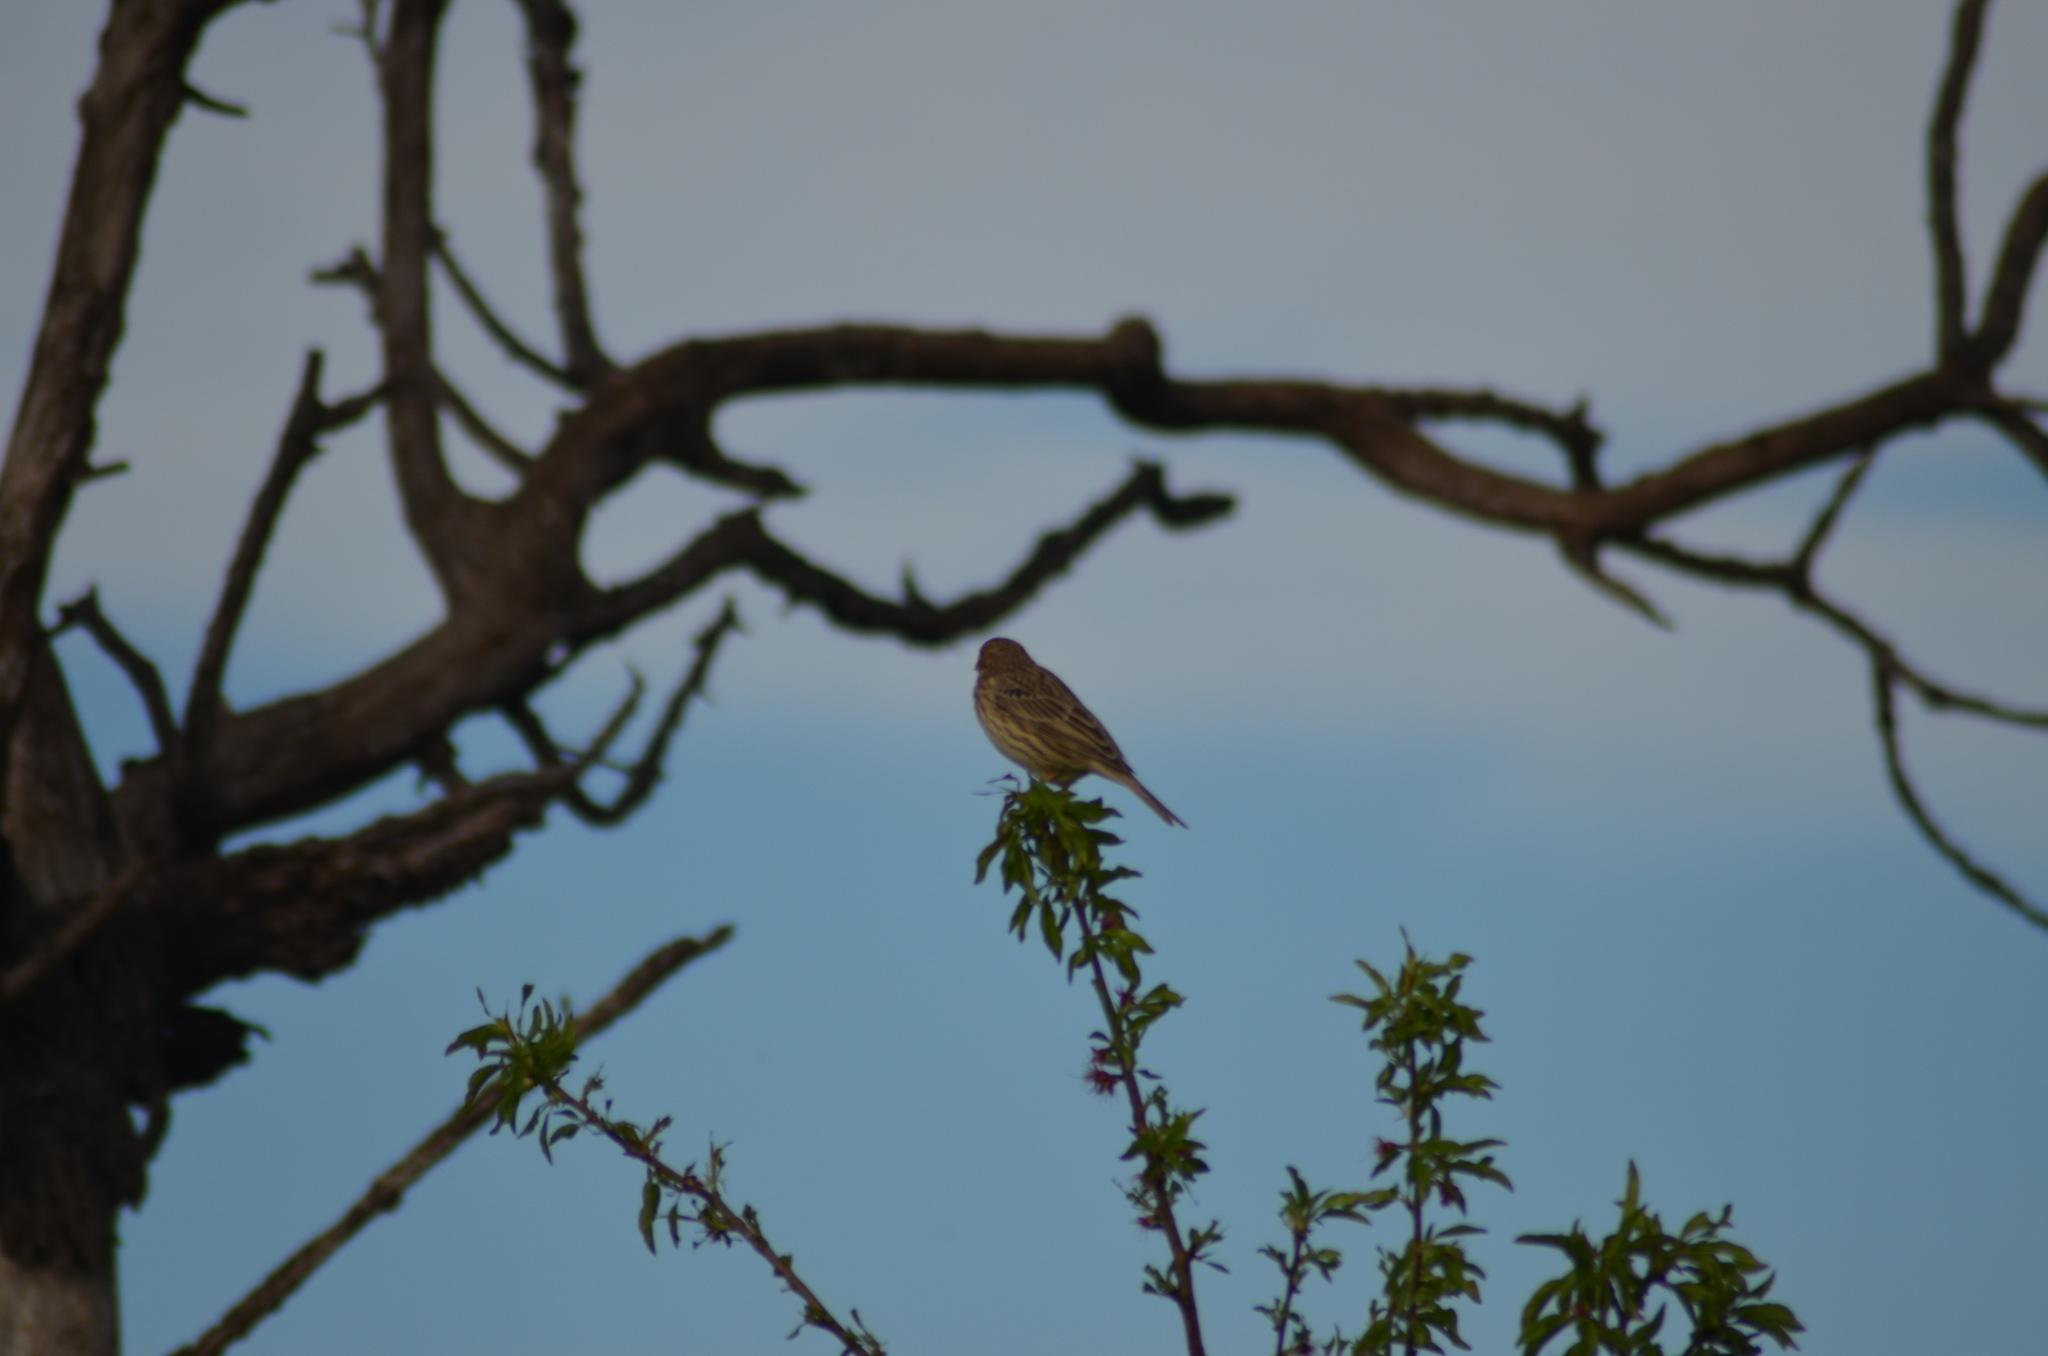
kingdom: Animalia
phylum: Chordata
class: Aves
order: Passeriformes
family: Emberizidae
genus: Emberiza
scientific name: Emberiza calandra
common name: Corn bunting
